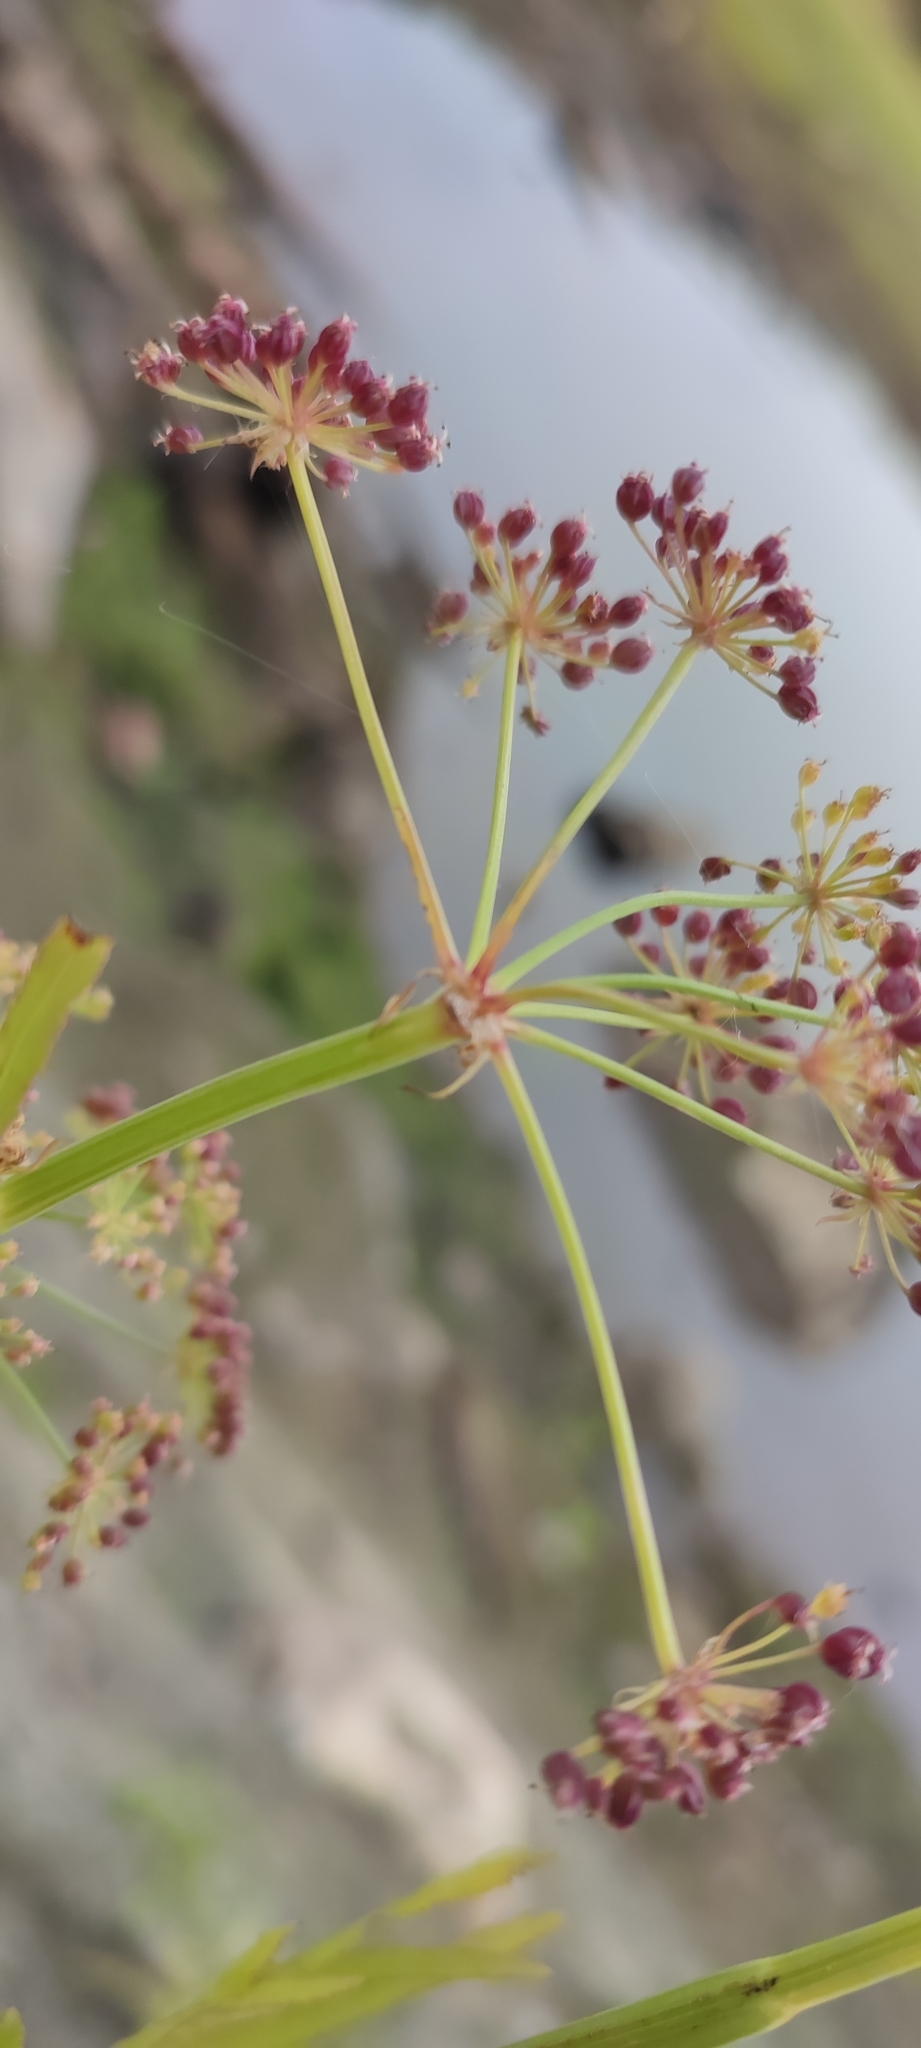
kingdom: Plantae
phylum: Tracheophyta
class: Magnoliopsida
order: Apiales
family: Apiaceae
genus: Sium
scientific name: Sium latifolium
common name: Greater water-parsnip
